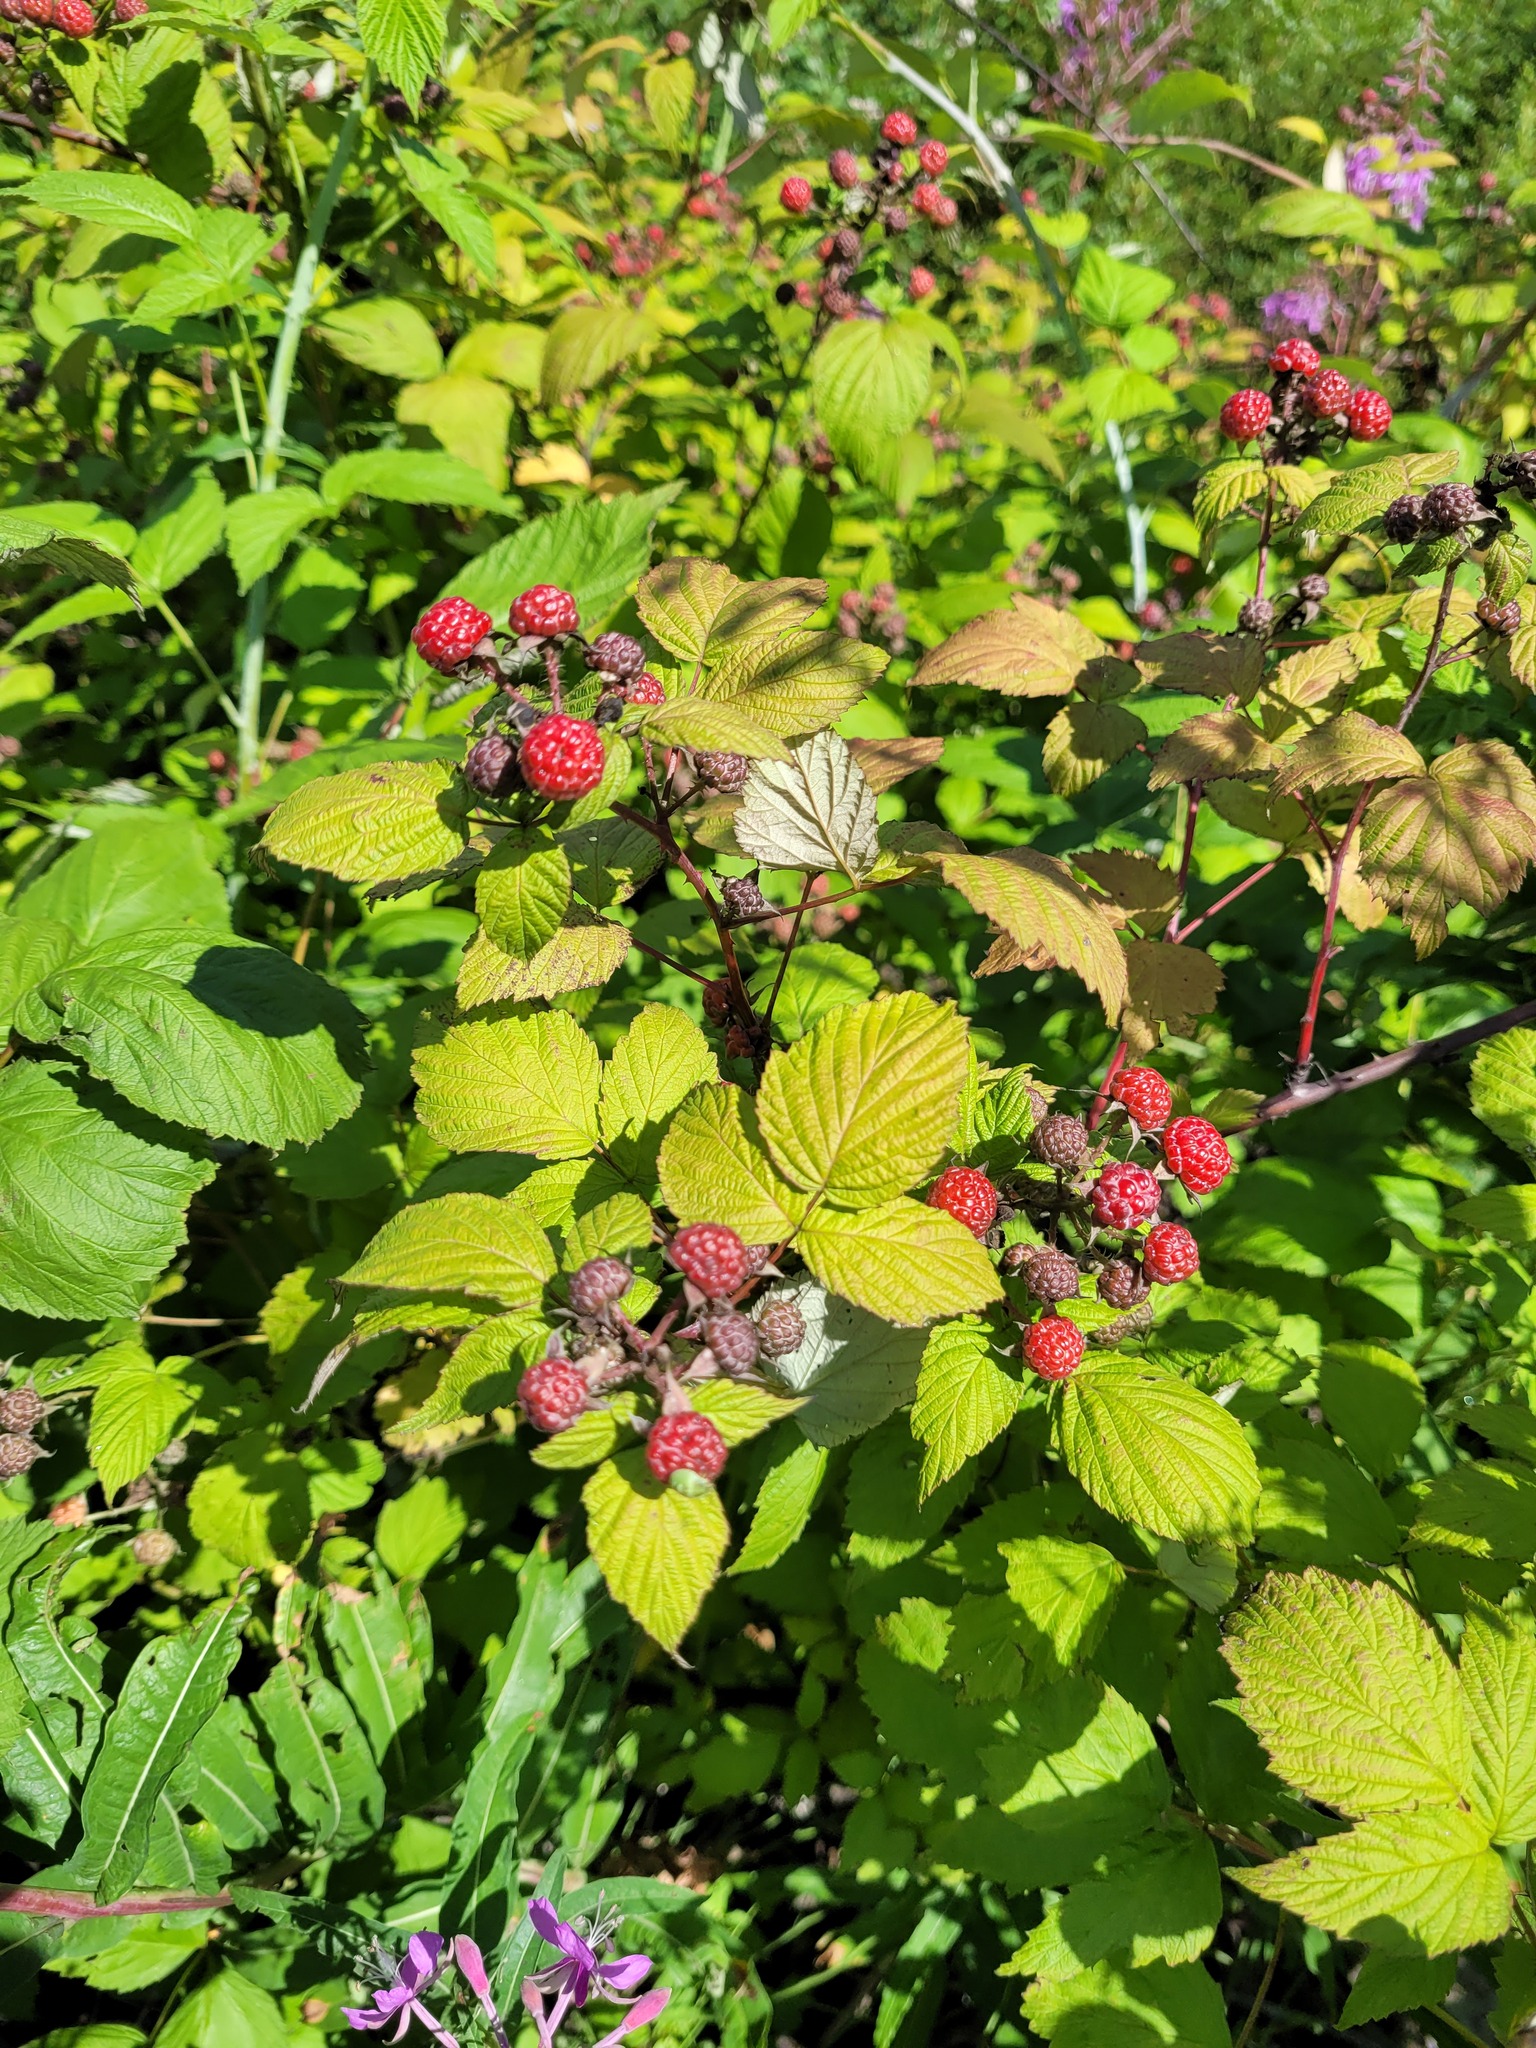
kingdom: Plantae
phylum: Tracheophyta
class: Magnoliopsida
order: Rosales
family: Rosaceae
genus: Rubus
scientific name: Rubus occidentalis
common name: Black raspberry
